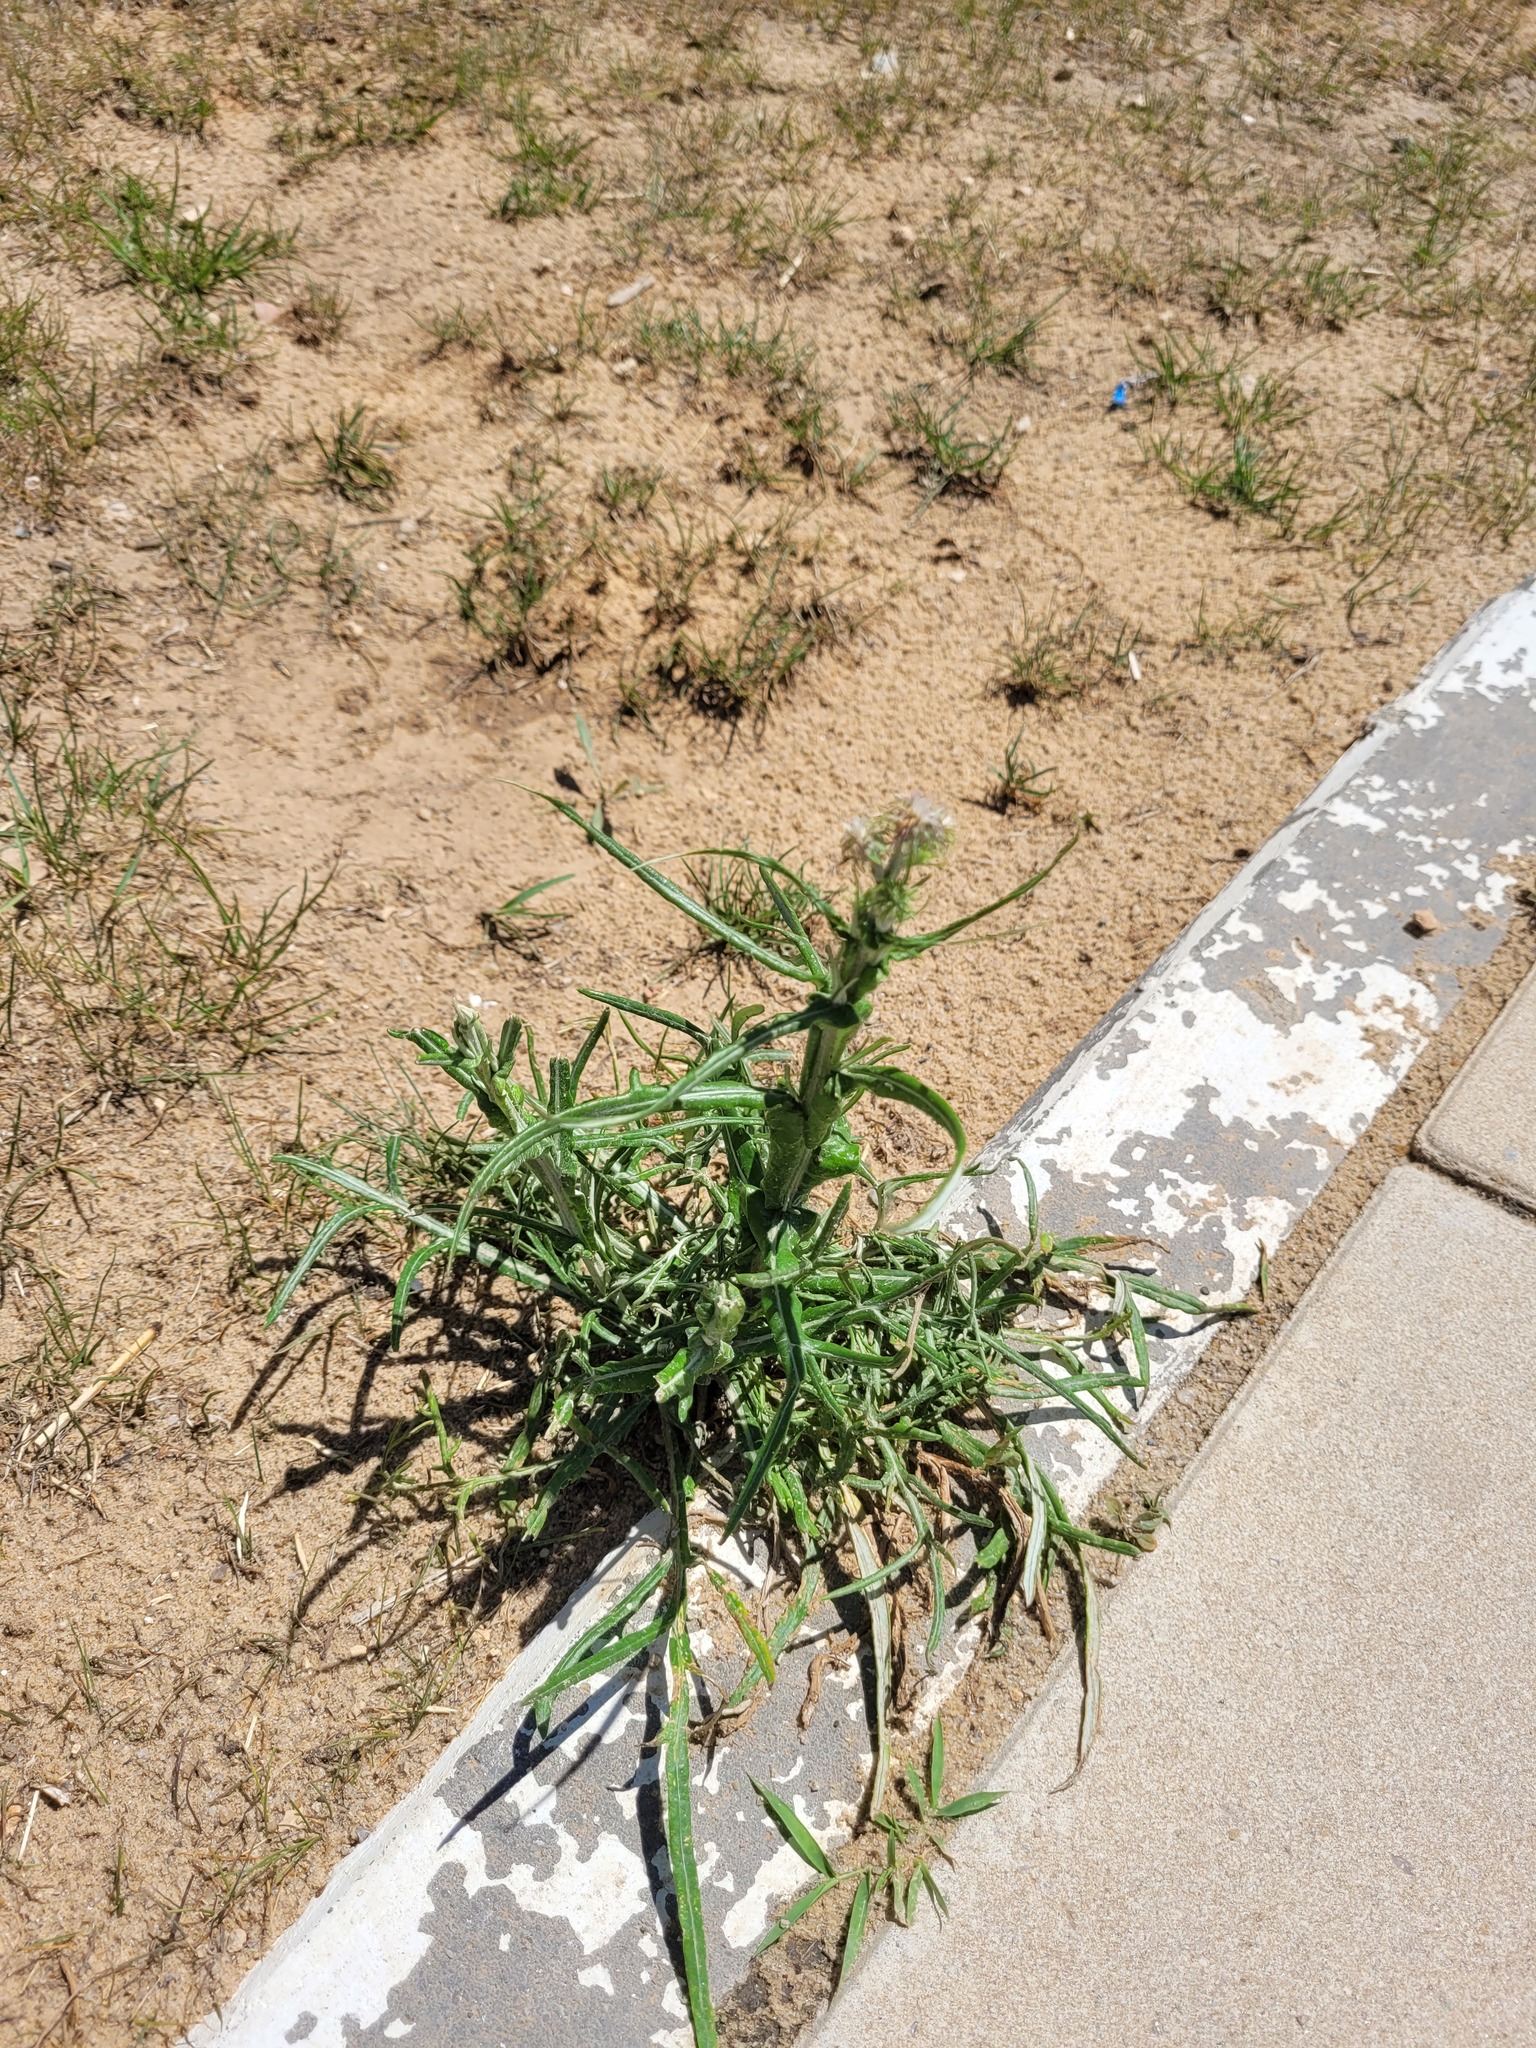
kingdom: Plantae
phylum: Tracheophyta
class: Magnoliopsida
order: Asterales
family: Asteraceae
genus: Jurinea
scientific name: Jurinea polyclonos
